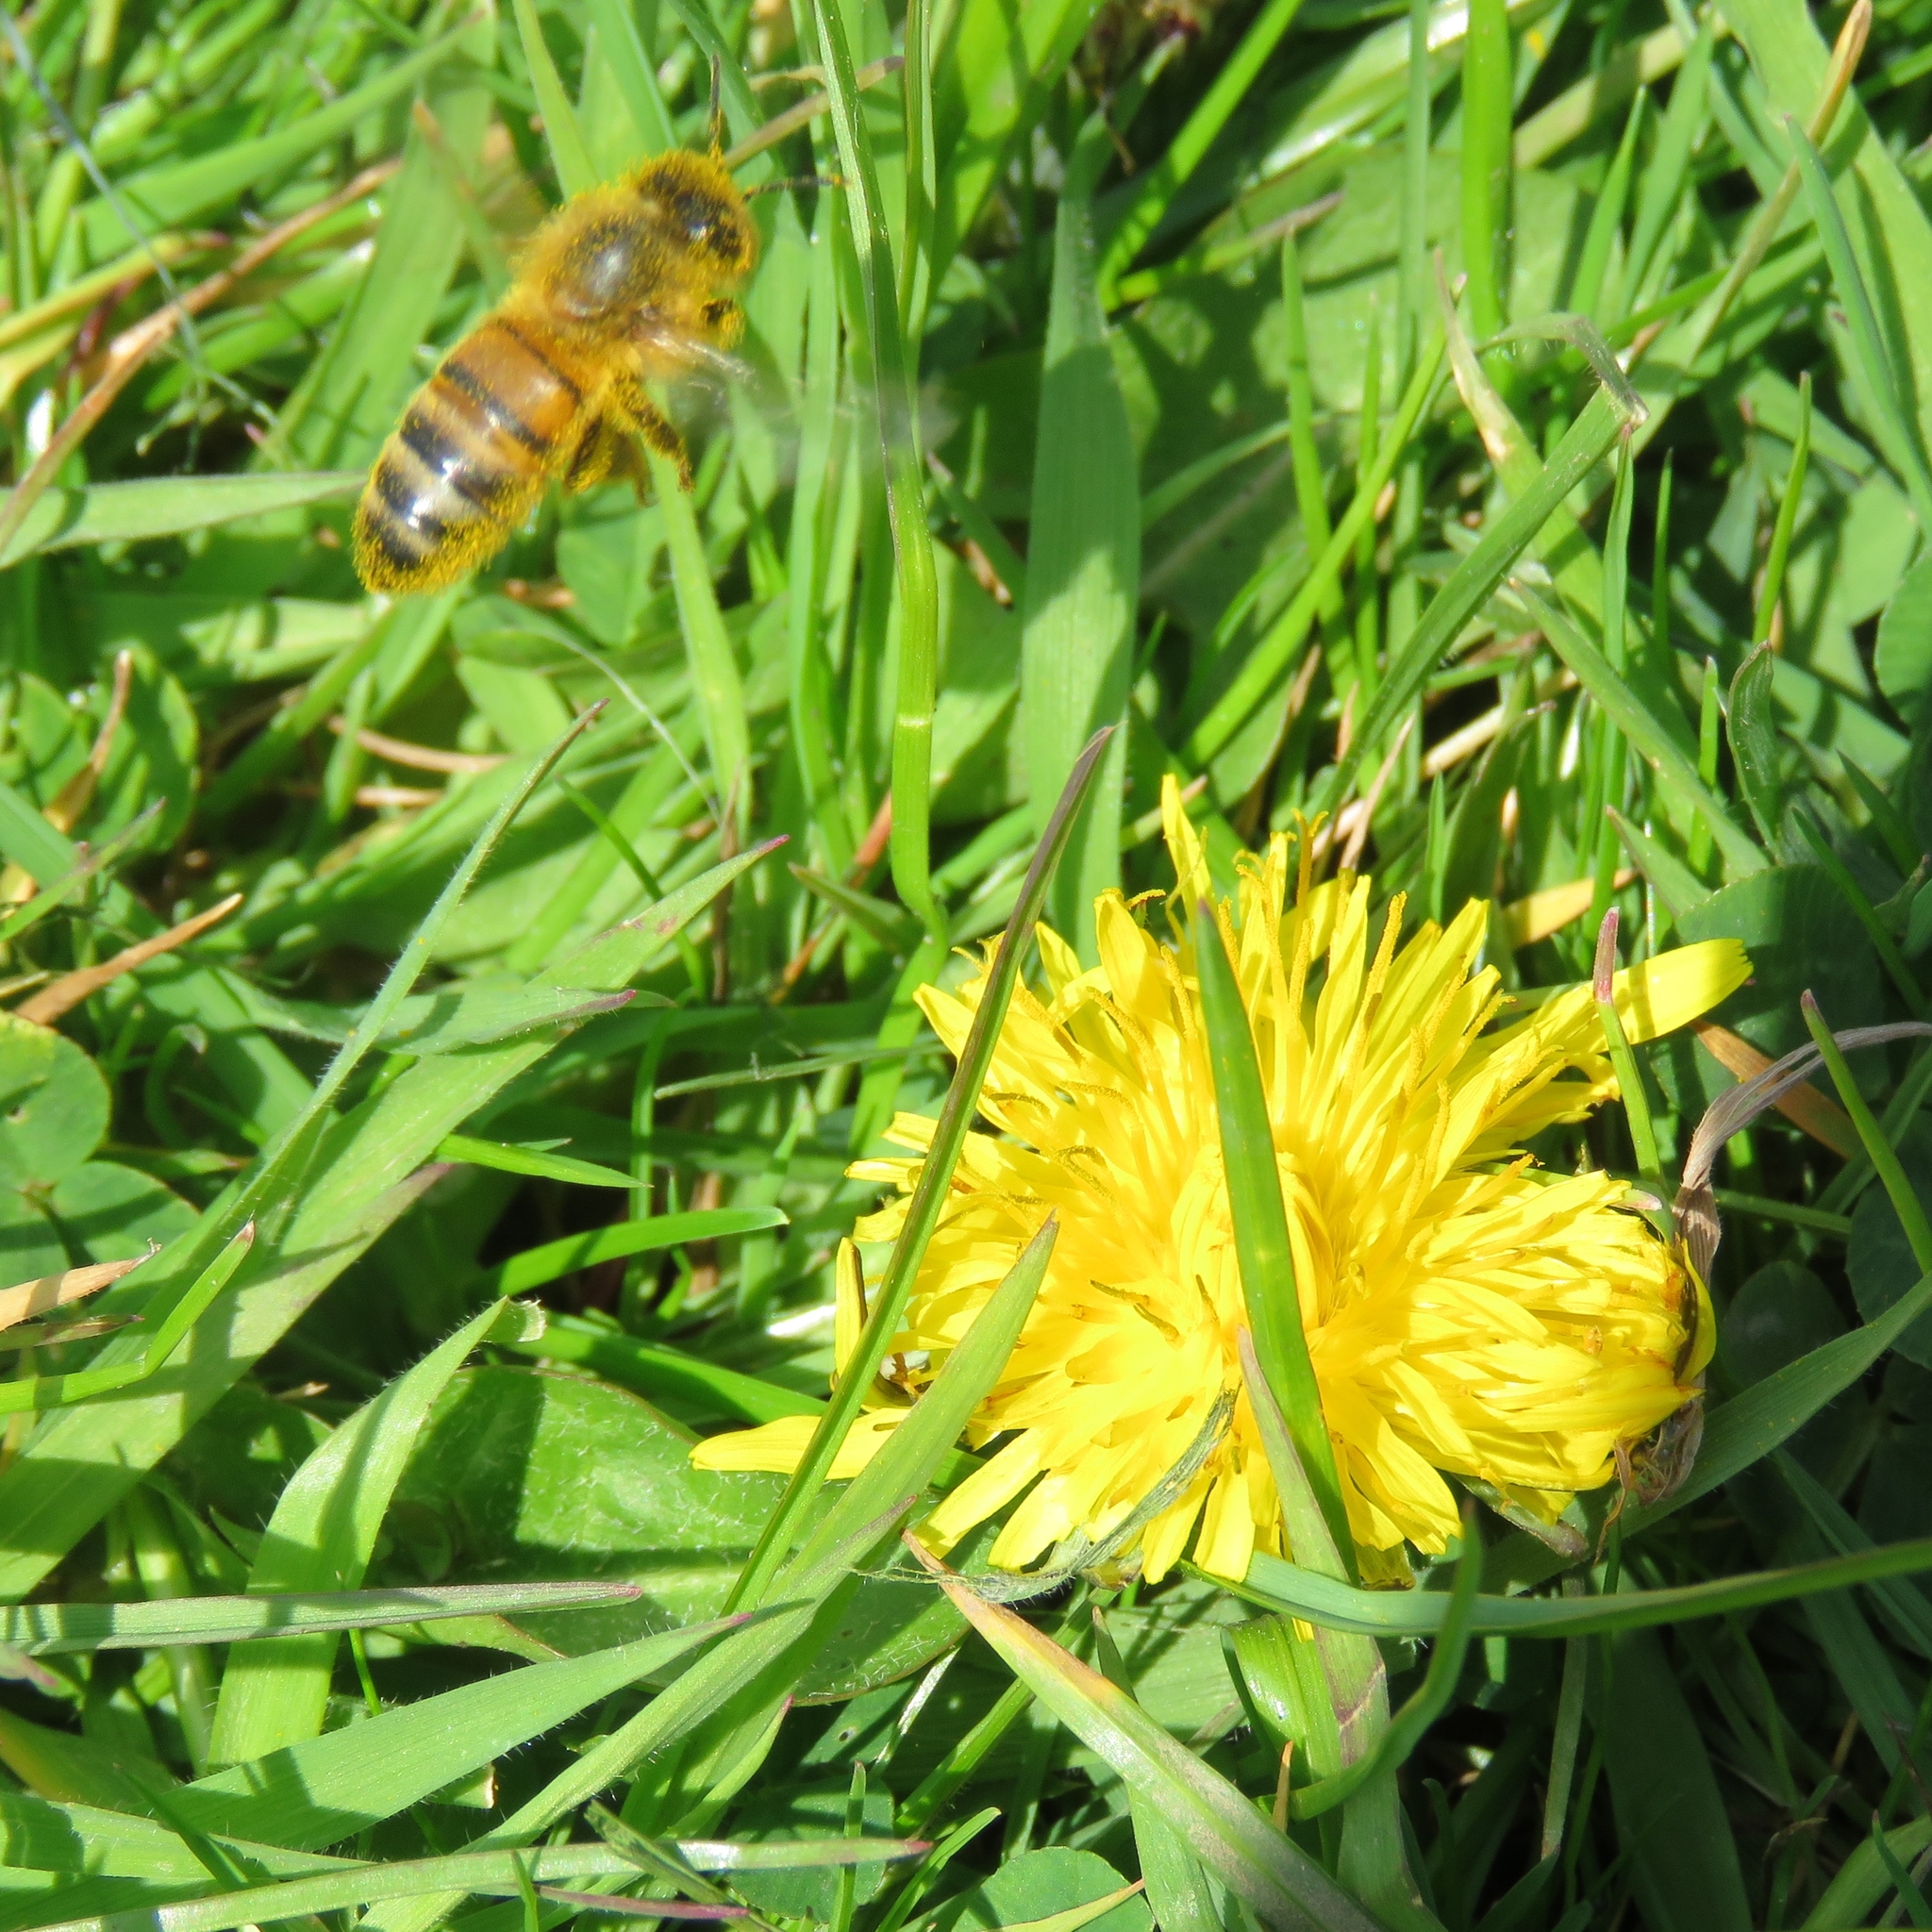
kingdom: Animalia
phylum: Arthropoda
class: Insecta
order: Hymenoptera
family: Apidae
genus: Apis
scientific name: Apis mellifera
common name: Honey bee
